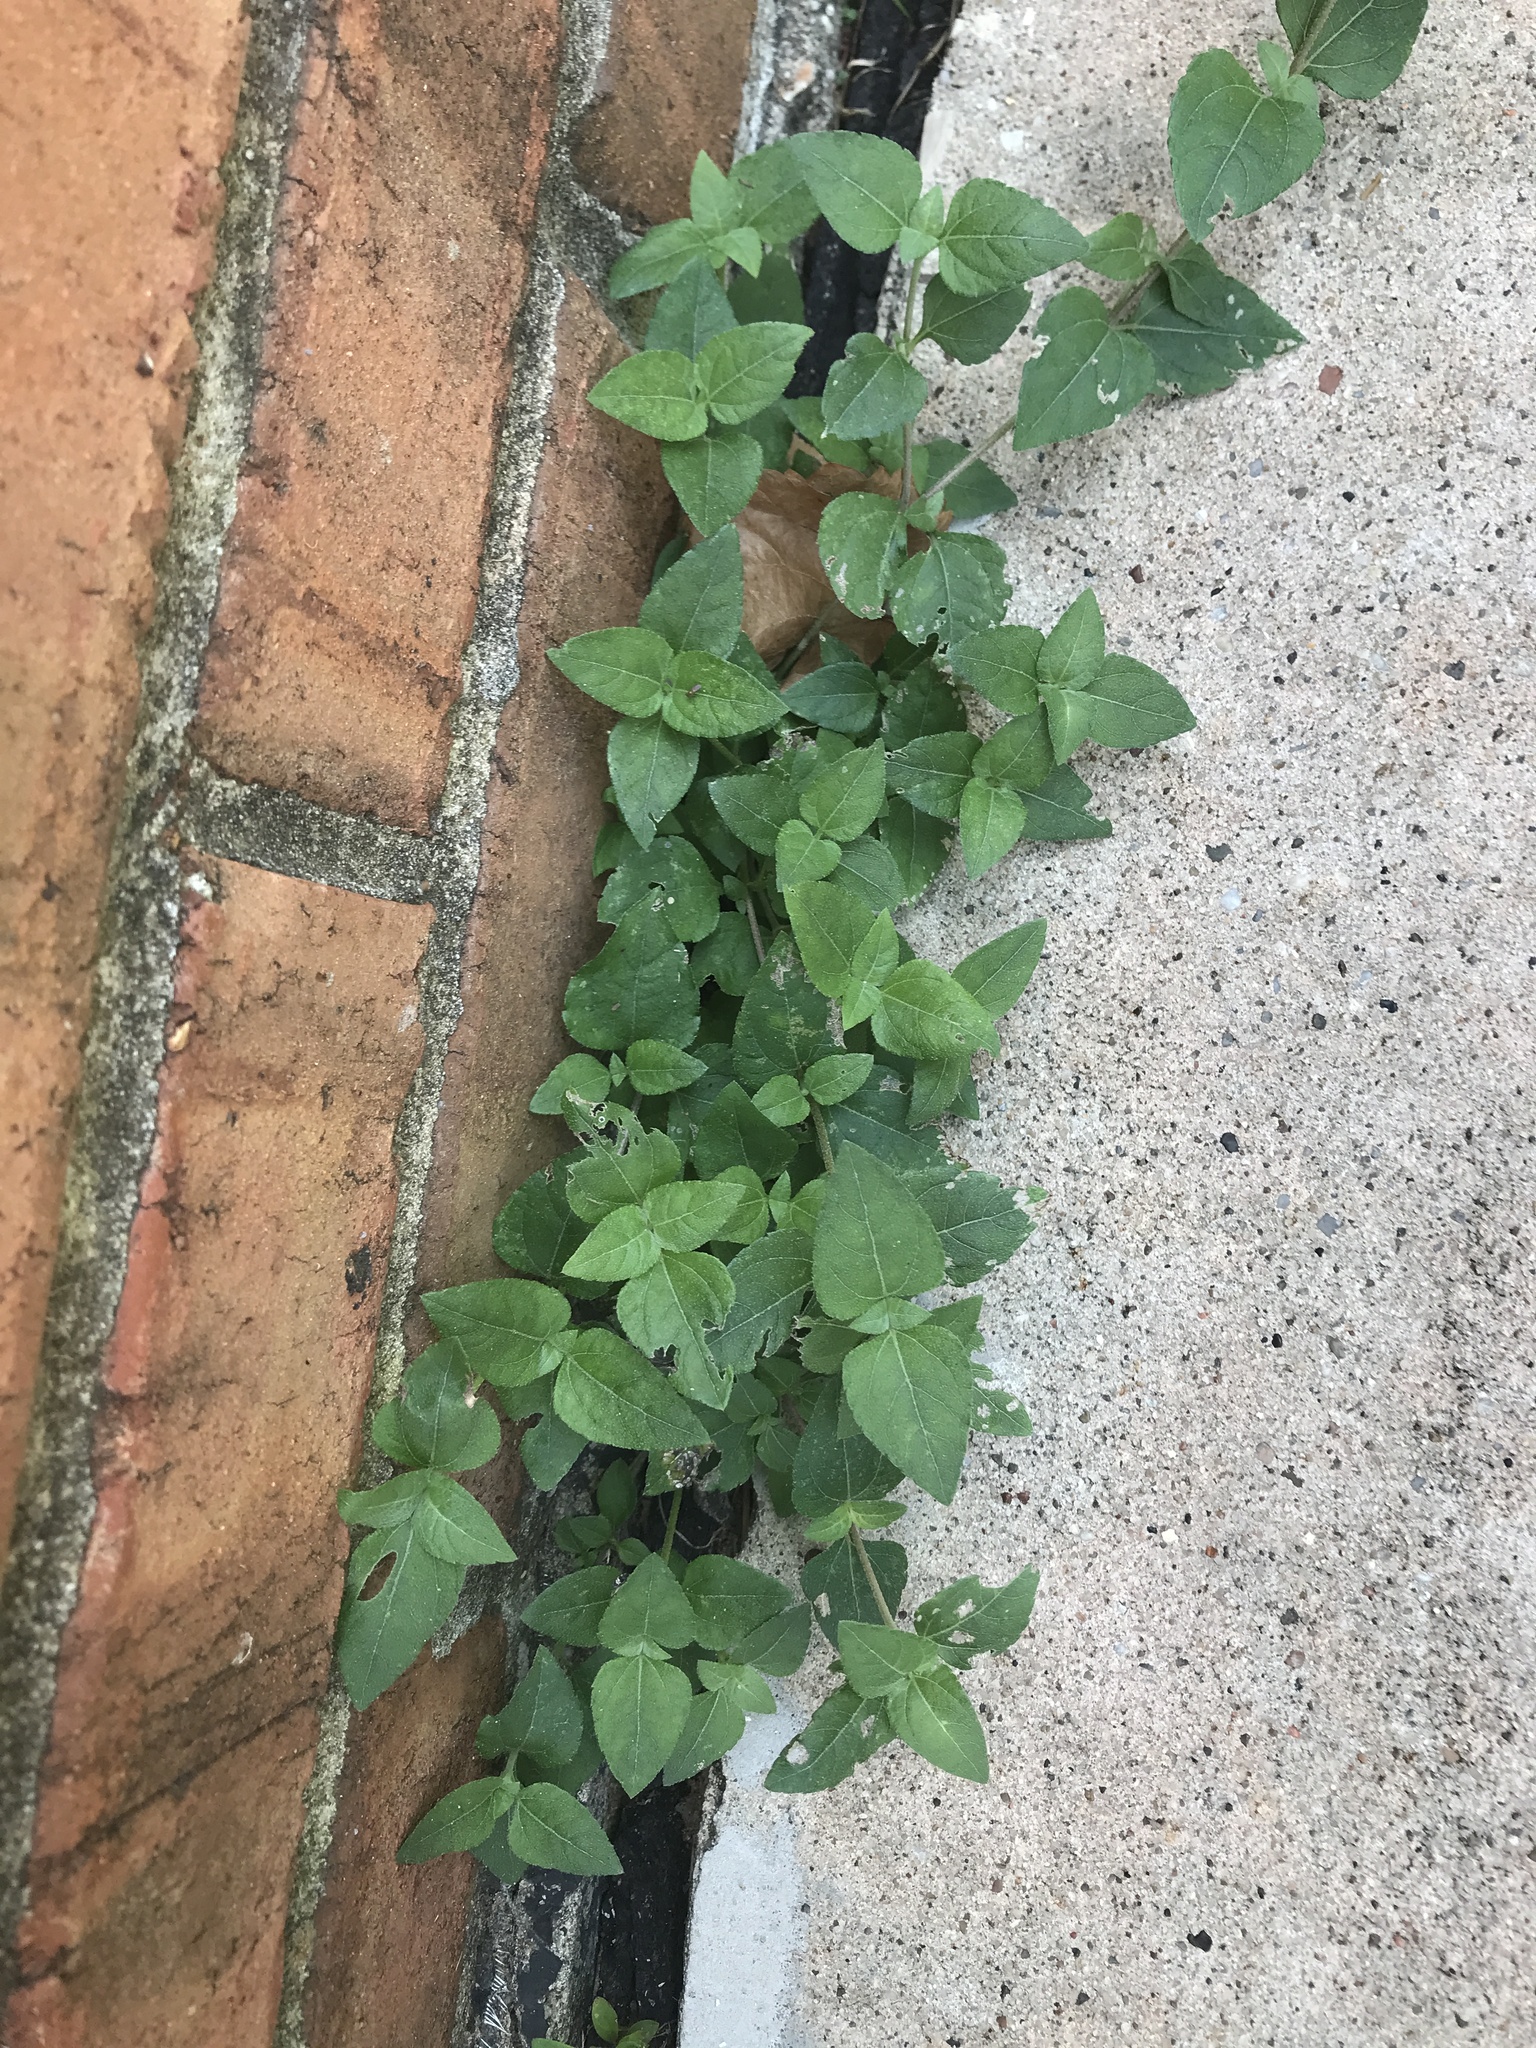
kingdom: Plantae
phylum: Tracheophyta
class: Magnoliopsida
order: Asterales
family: Asteraceae
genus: Calyptocarpus
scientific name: Calyptocarpus vialis
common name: Straggler daisy
